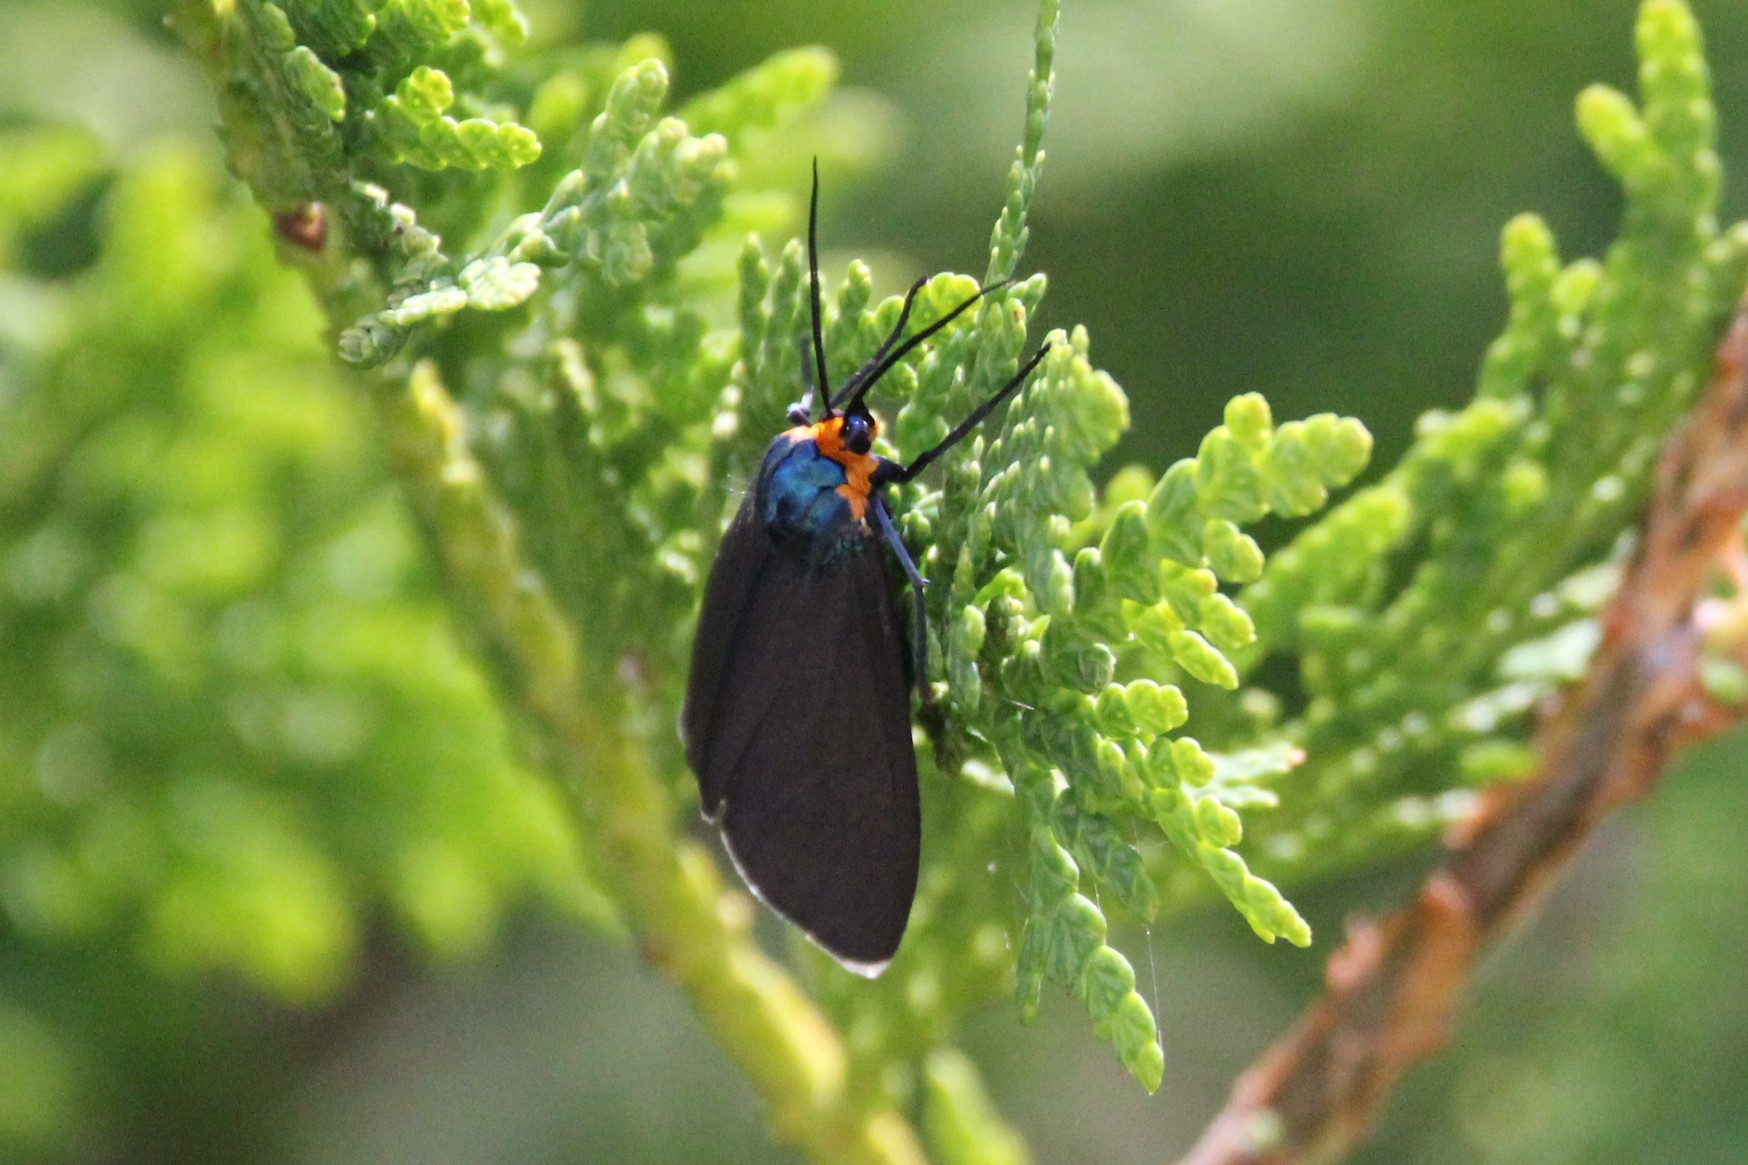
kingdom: Animalia
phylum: Arthropoda
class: Insecta
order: Lepidoptera
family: Erebidae
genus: Ctenucha
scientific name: Ctenucha virginica
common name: Virginia ctenucha moth
